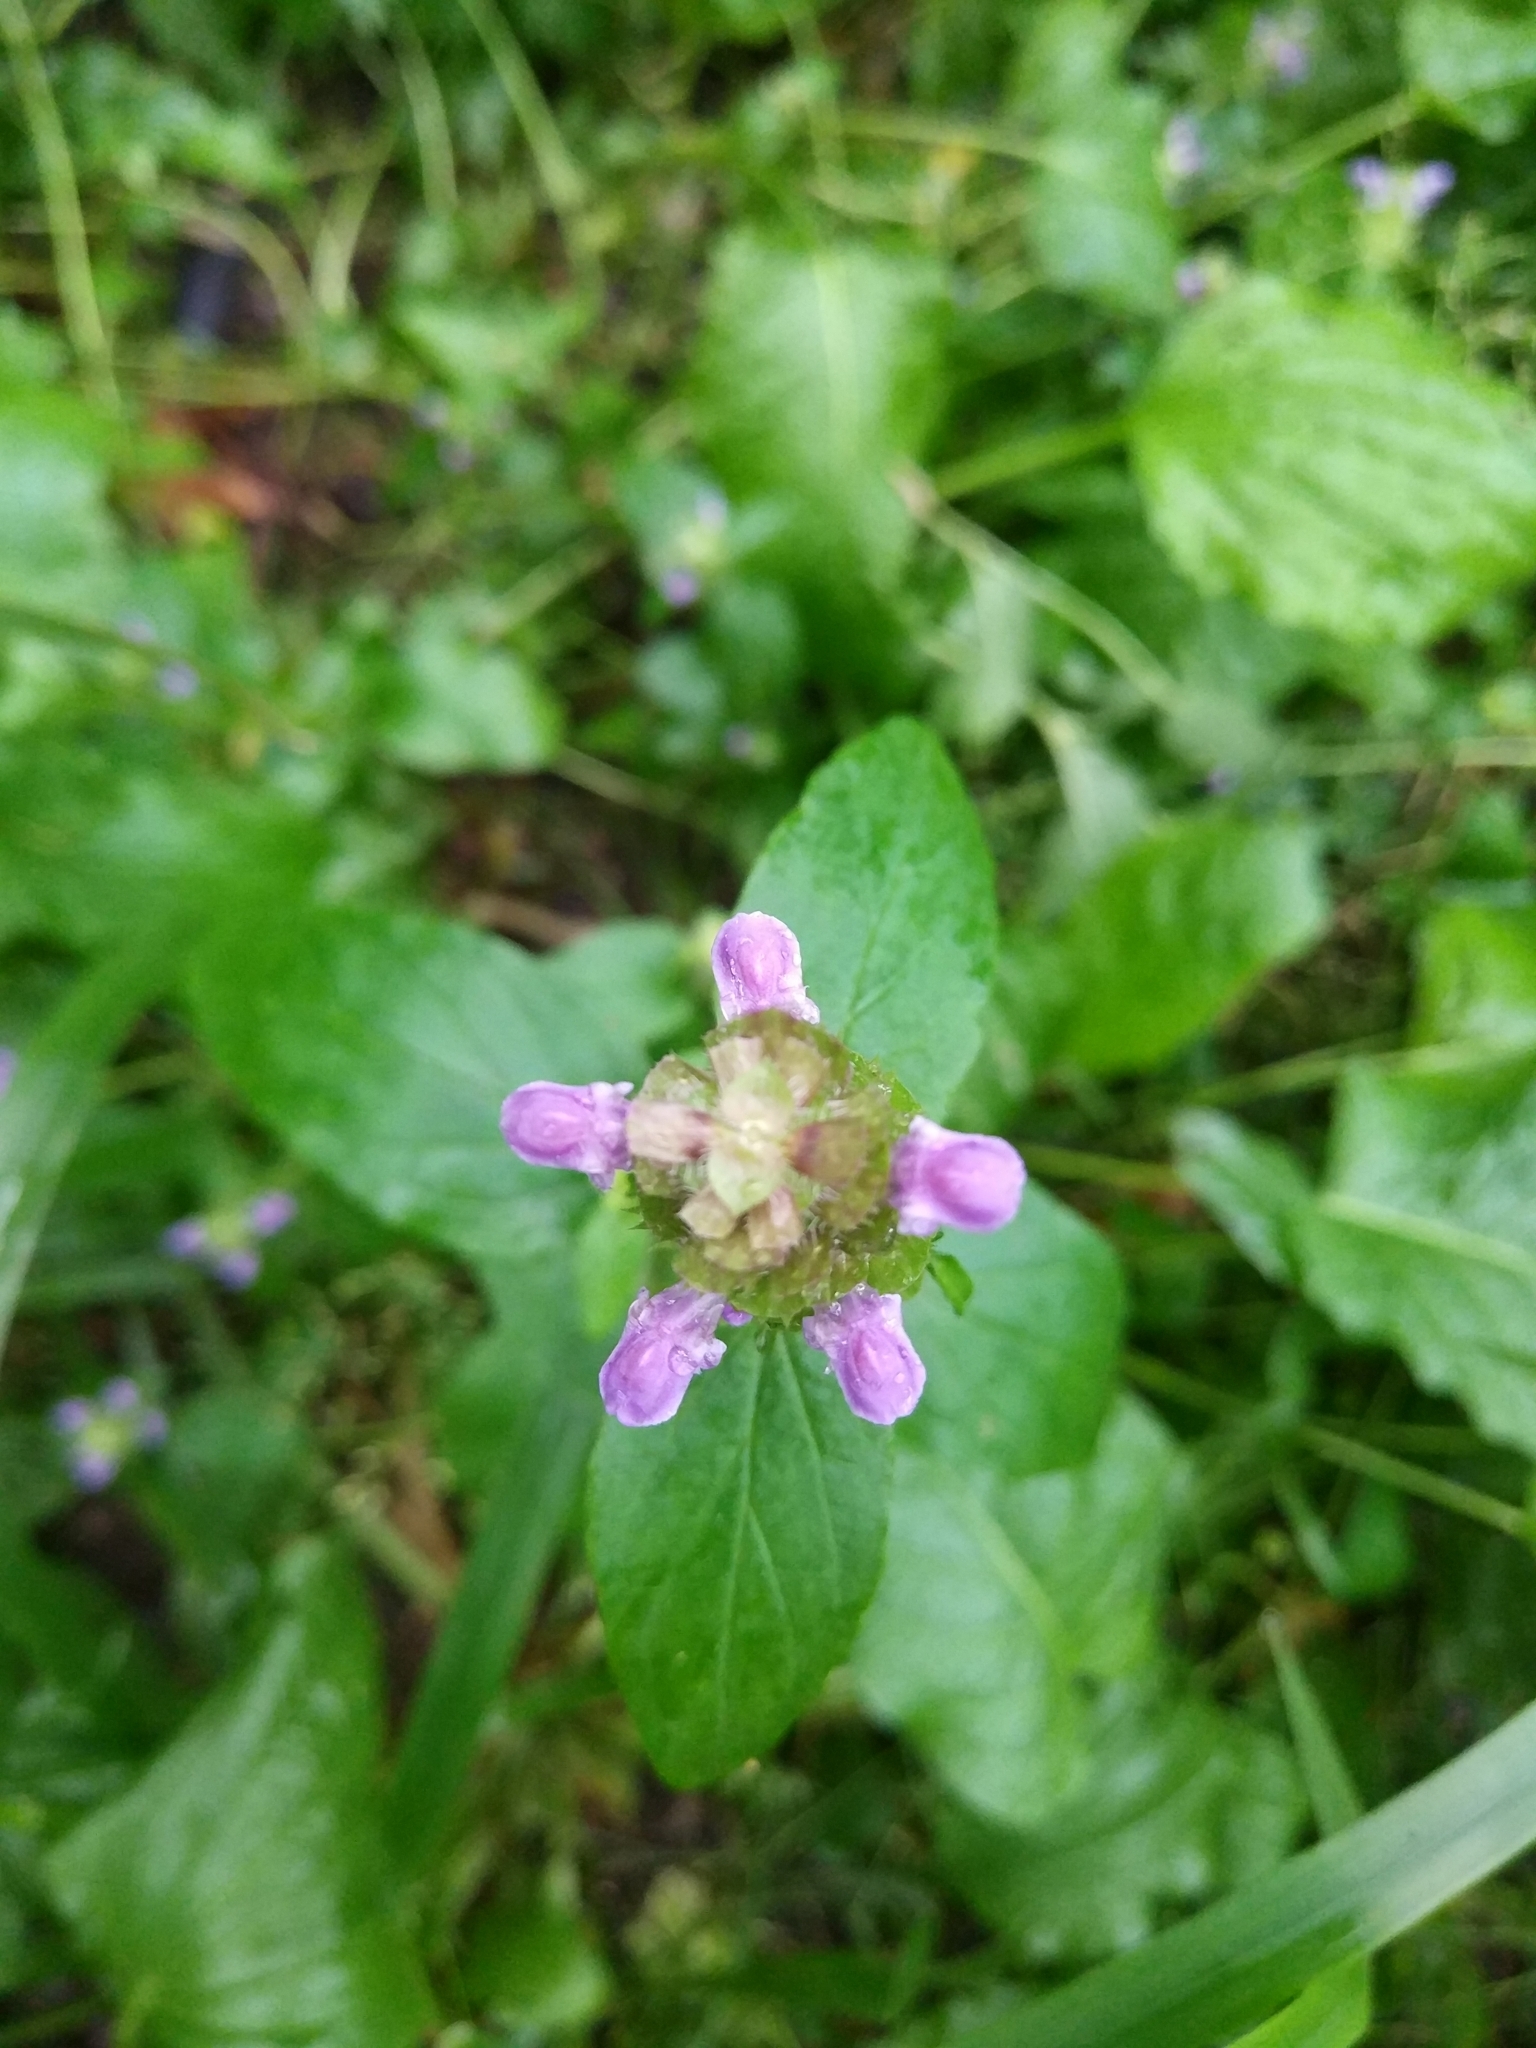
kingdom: Plantae
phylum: Tracheophyta
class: Magnoliopsida
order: Lamiales
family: Lamiaceae
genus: Prunella
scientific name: Prunella vulgaris
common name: Heal-all
